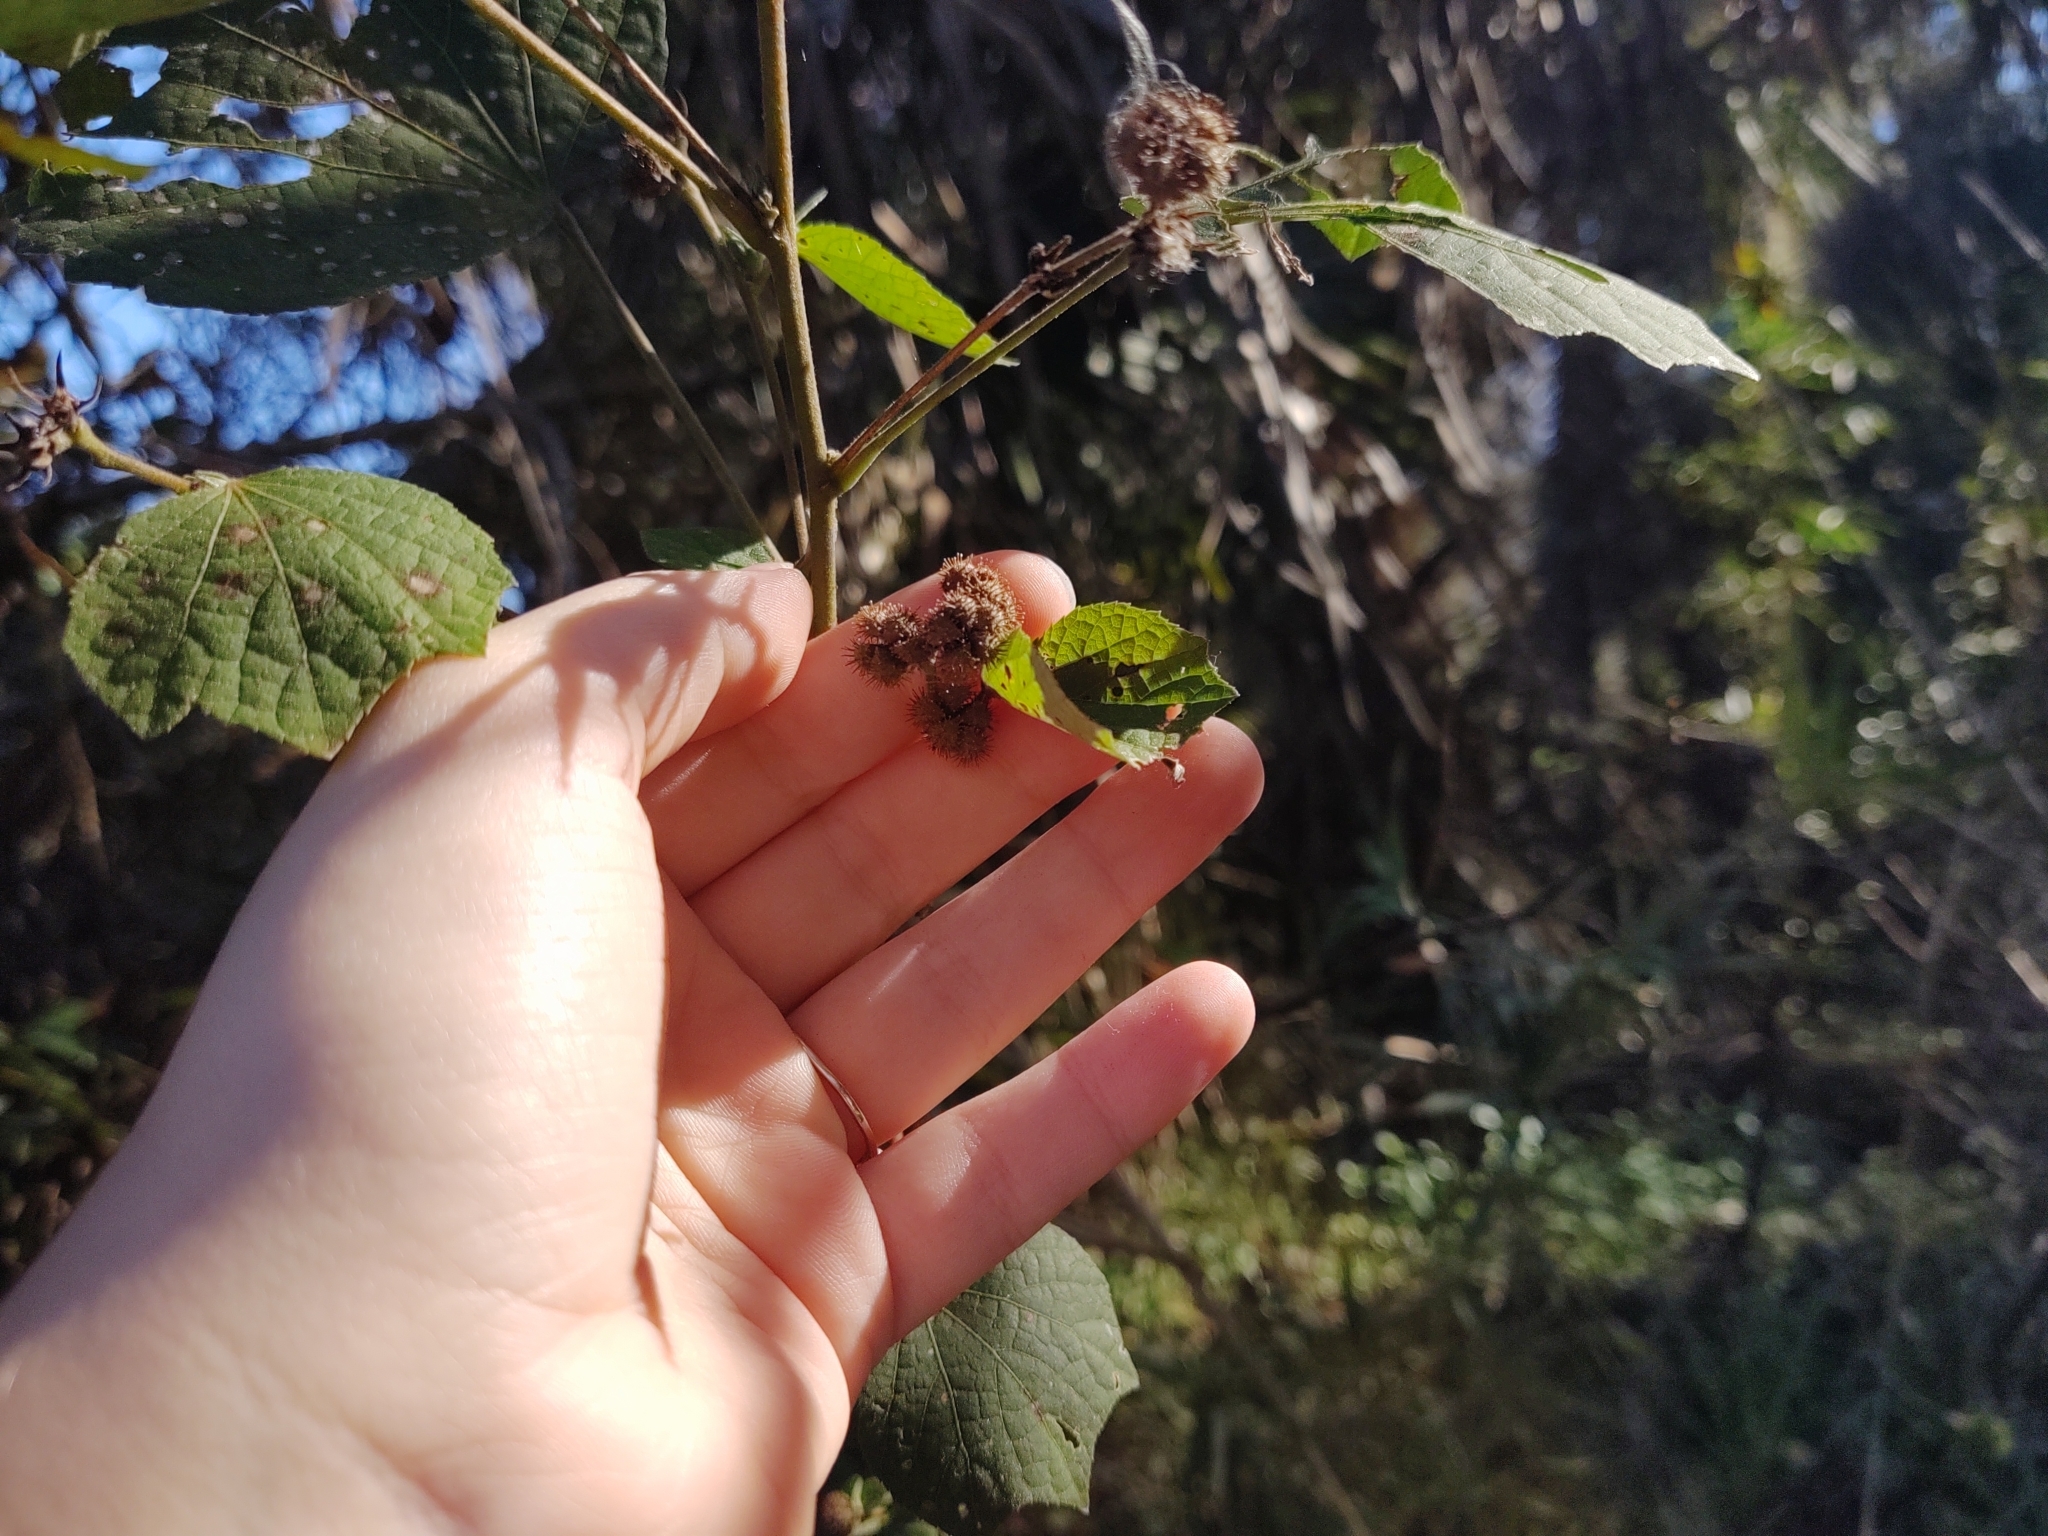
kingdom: Plantae
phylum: Tracheophyta
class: Magnoliopsida
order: Malvales
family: Malvaceae
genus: Urena
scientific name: Urena lobata
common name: Caesarweed
